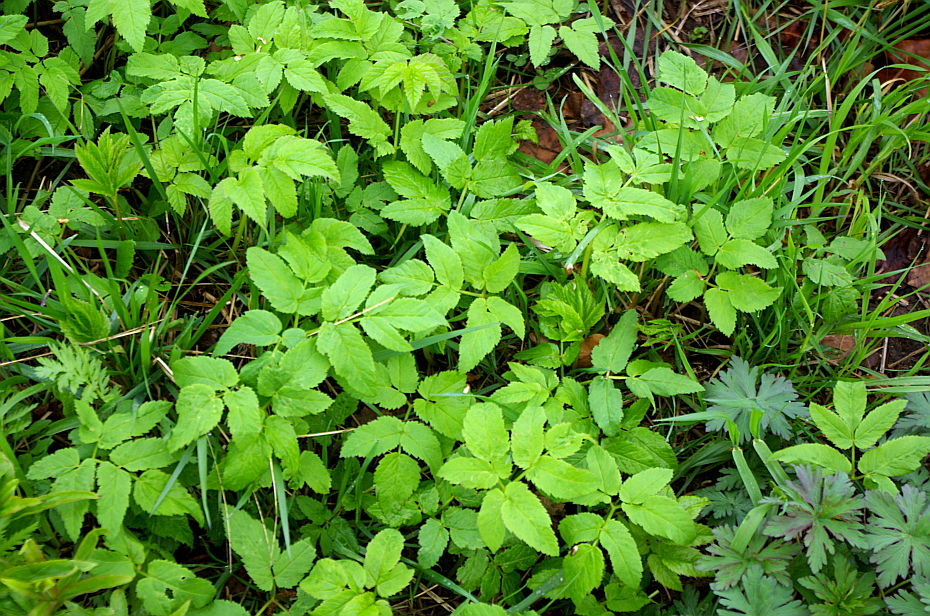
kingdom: Plantae
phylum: Tracheophyta
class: Magnoliopsida
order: Apiales
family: Apiaceae
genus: Aegopodium
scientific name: Aegopodium podagraria
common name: Ground-elder
